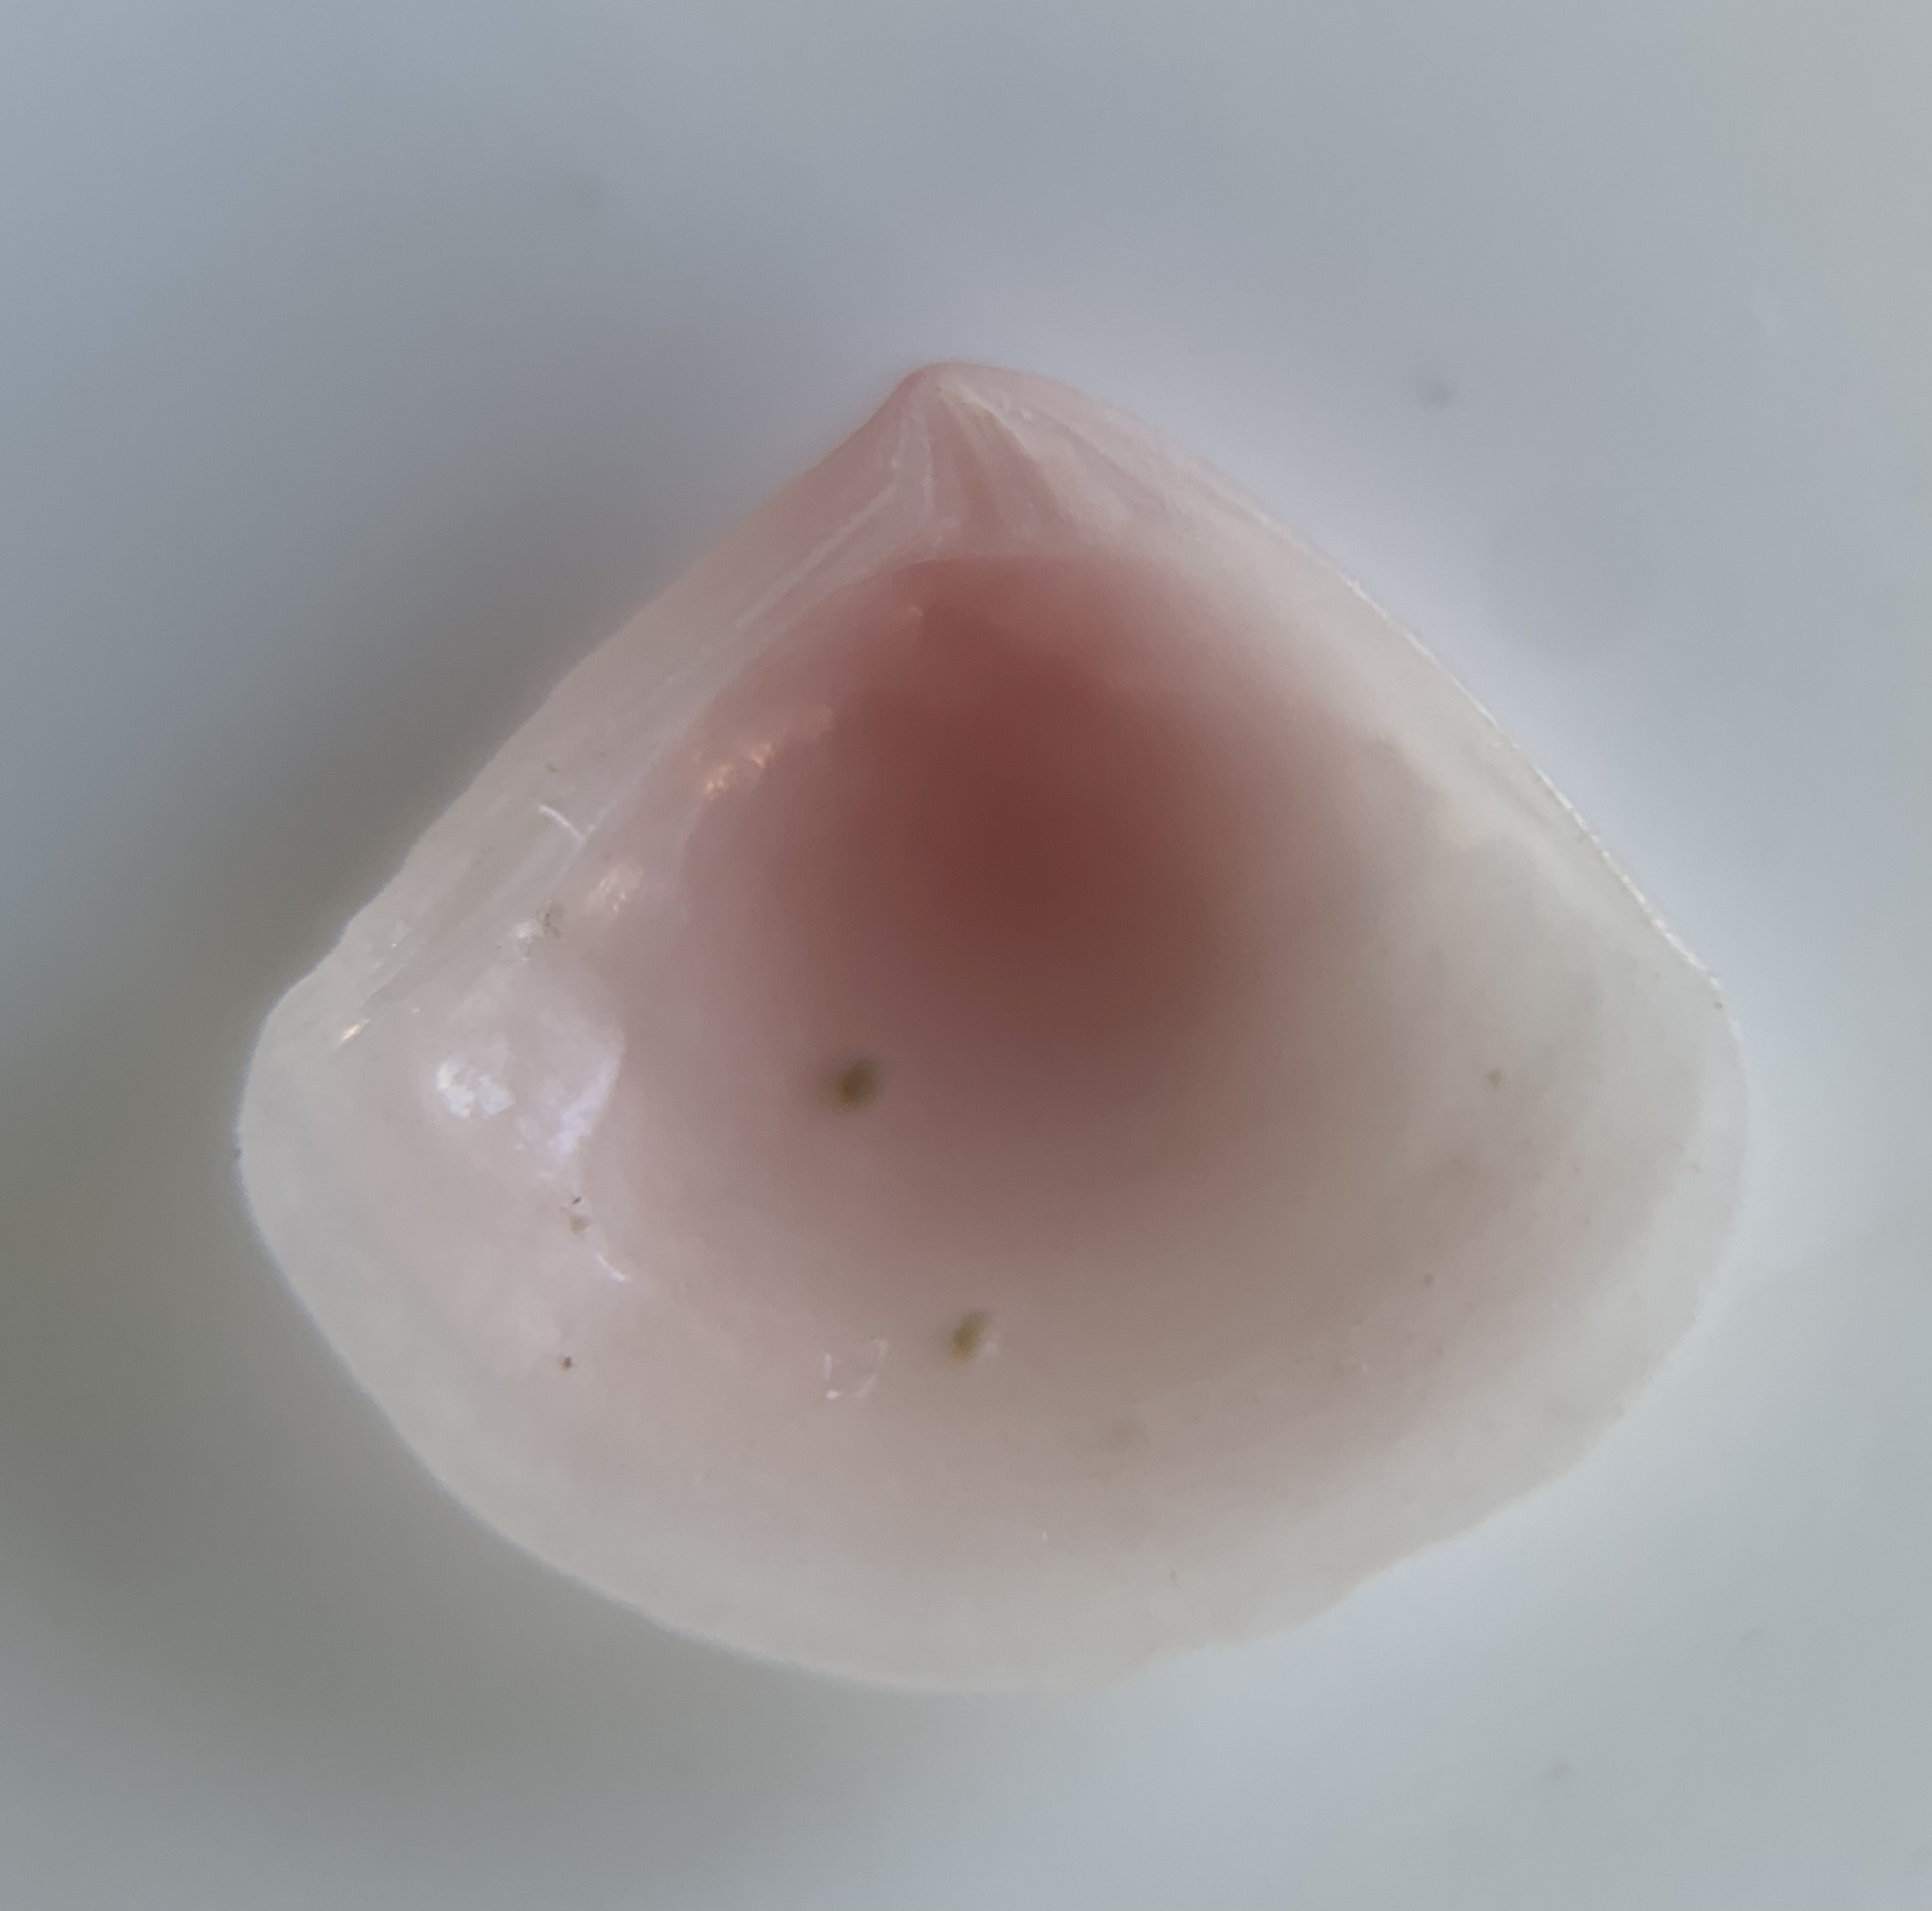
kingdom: Animalia
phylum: Mollusca
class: Bivalvia
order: Carditida
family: Crassatellidae
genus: Crassinella
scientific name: Crassinella lunulata
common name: Lunate crassinella
